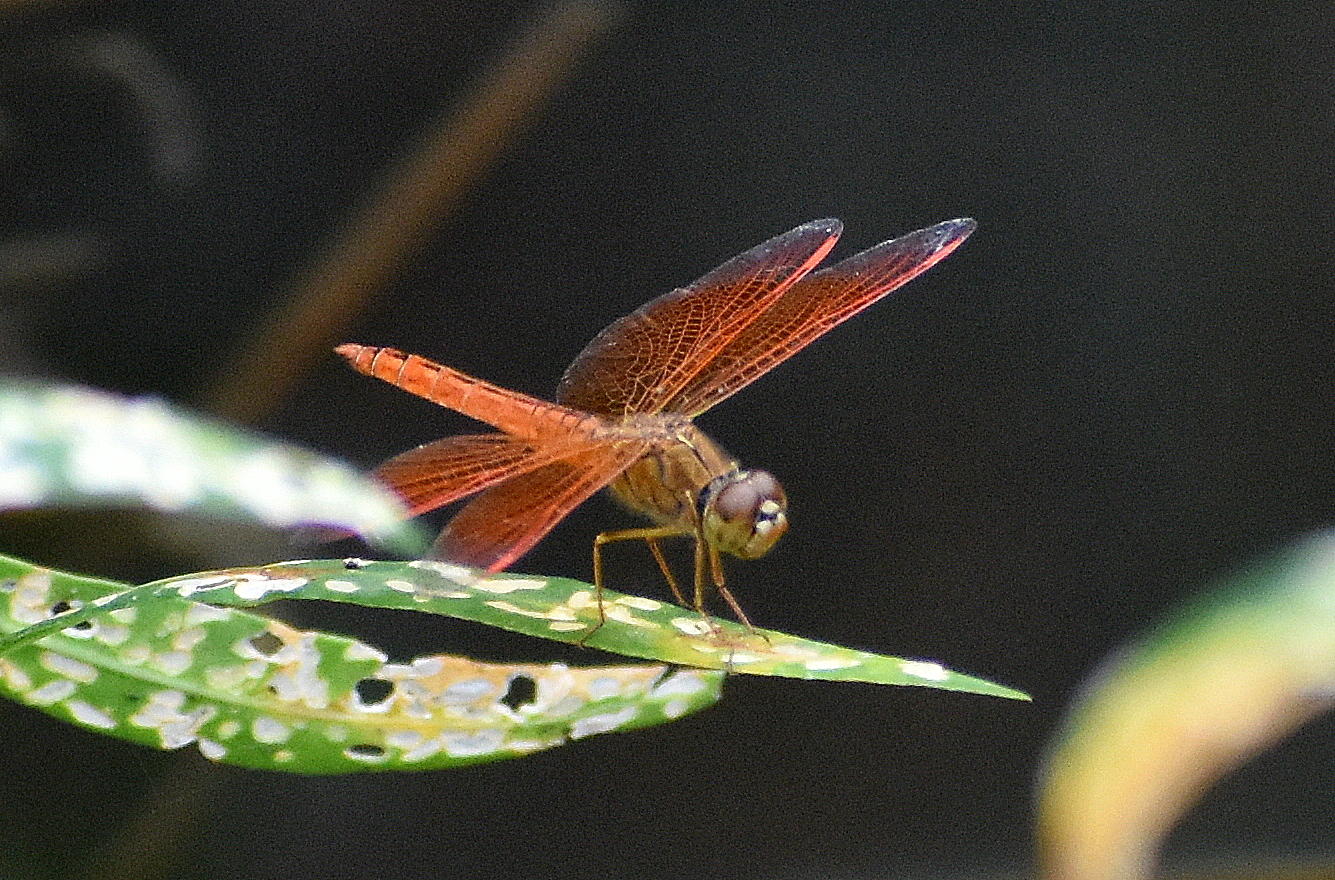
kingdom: Animalia
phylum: Arthropoda
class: Insecta
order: Odonata
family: Libellulidae
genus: Brachythemis
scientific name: Brachythemis contaminata
